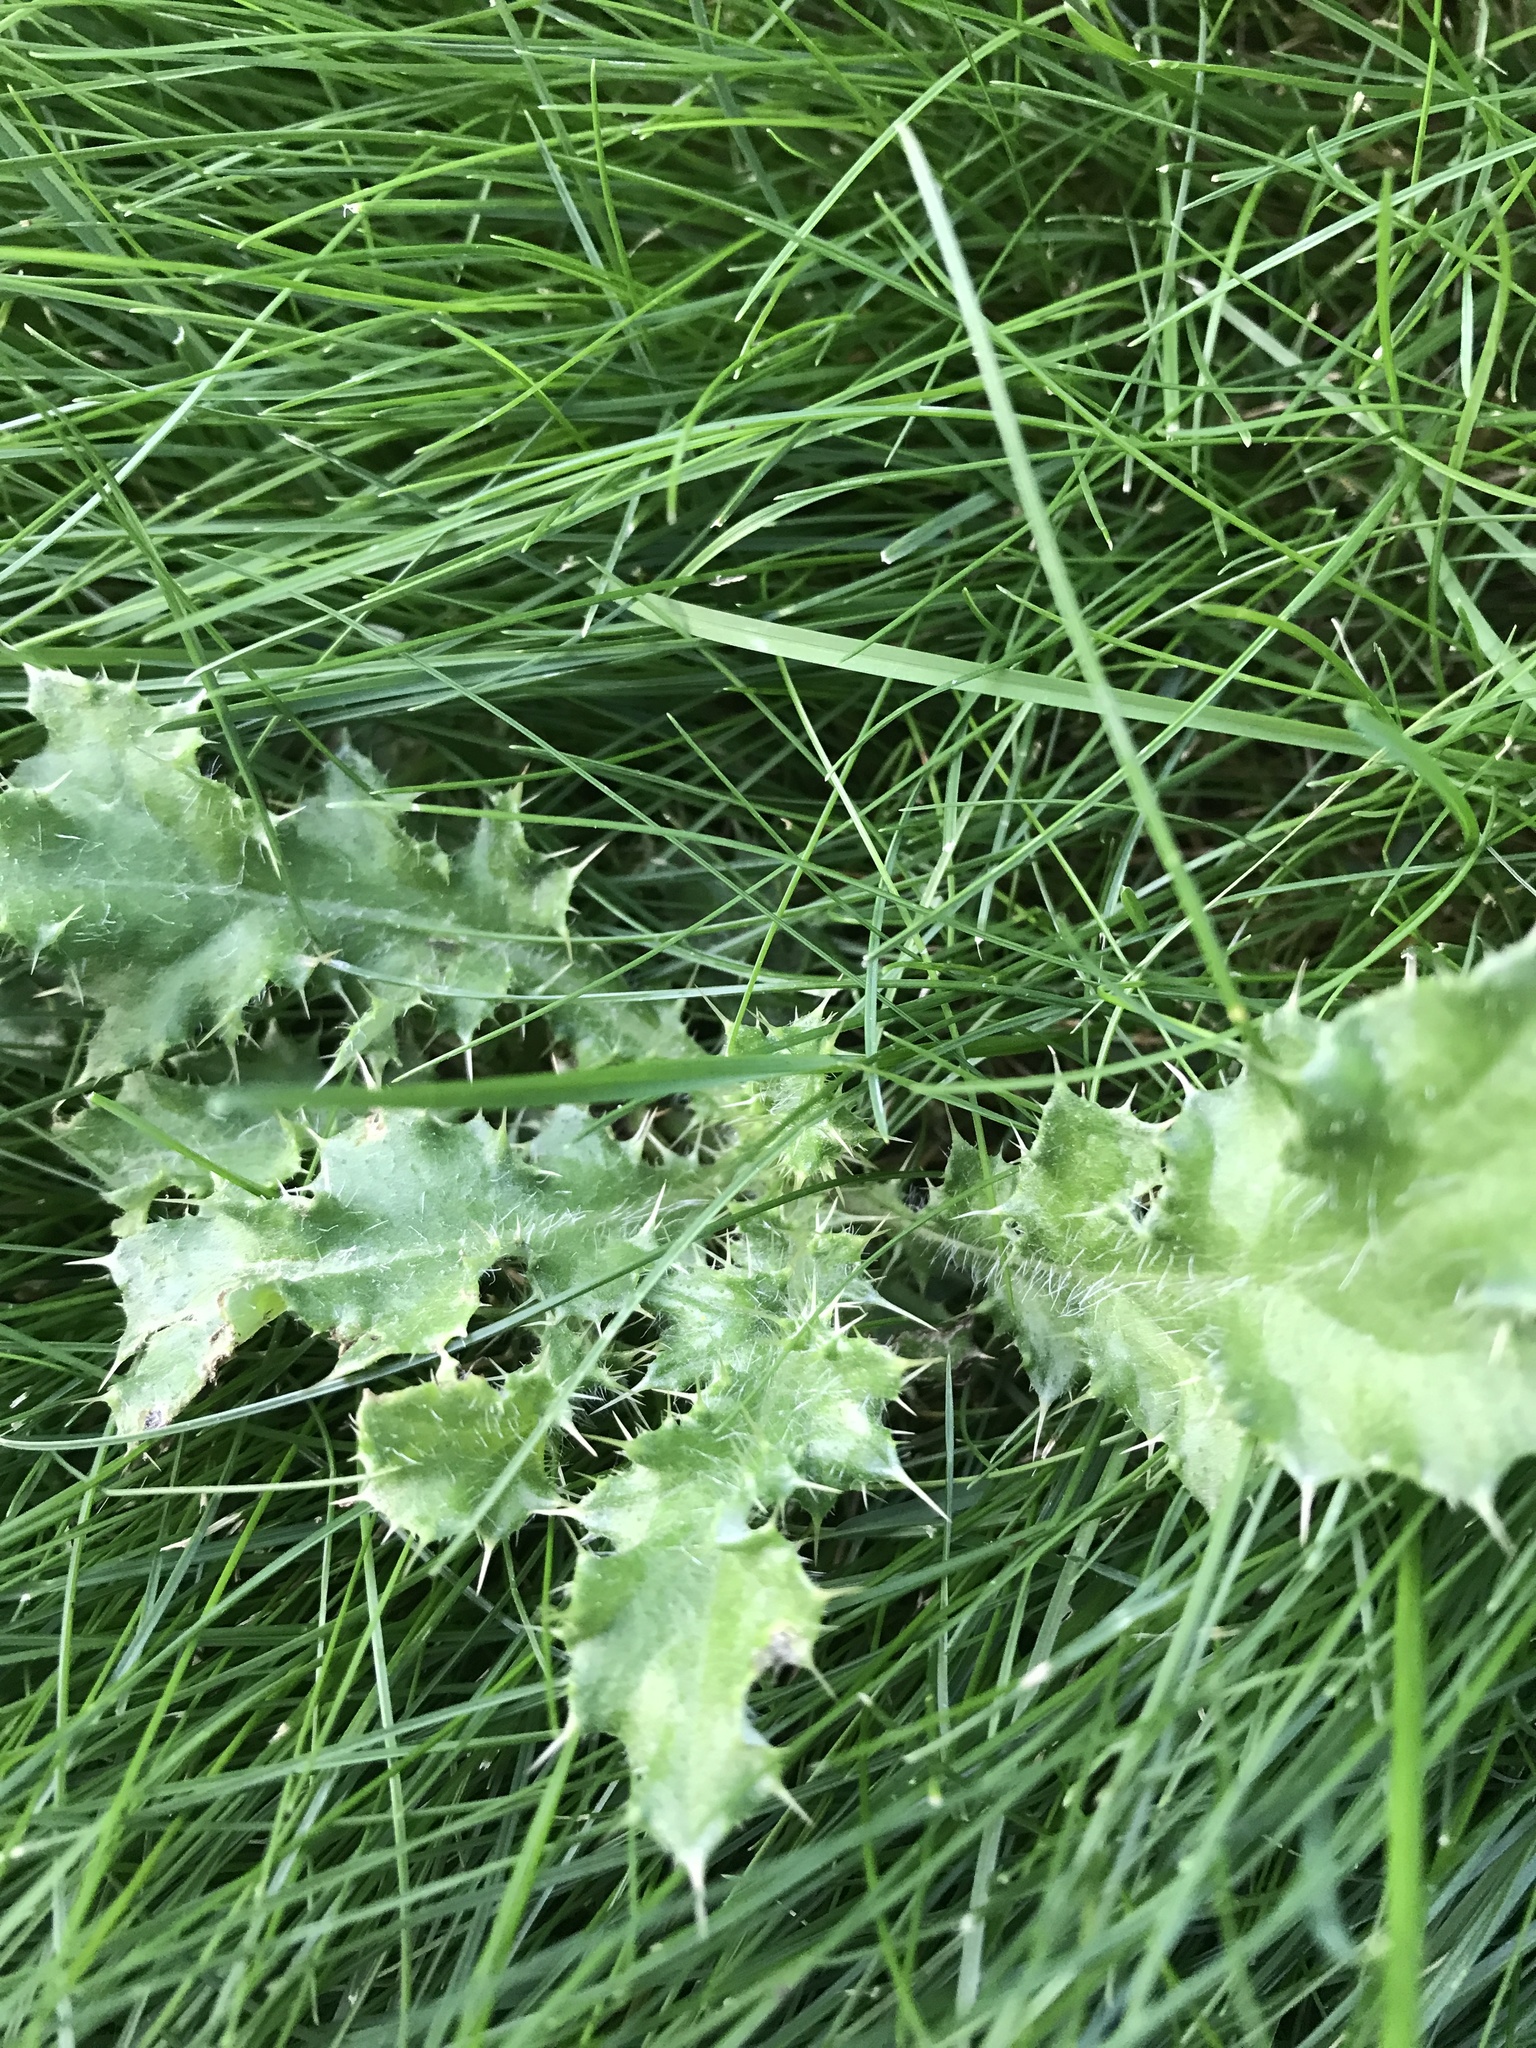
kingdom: Plantae
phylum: Tracheophyta
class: Magnoliopsida
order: Asterales
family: Asteraceae
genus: Cirsium
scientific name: Cirsium arvense
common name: Creeping thistle
